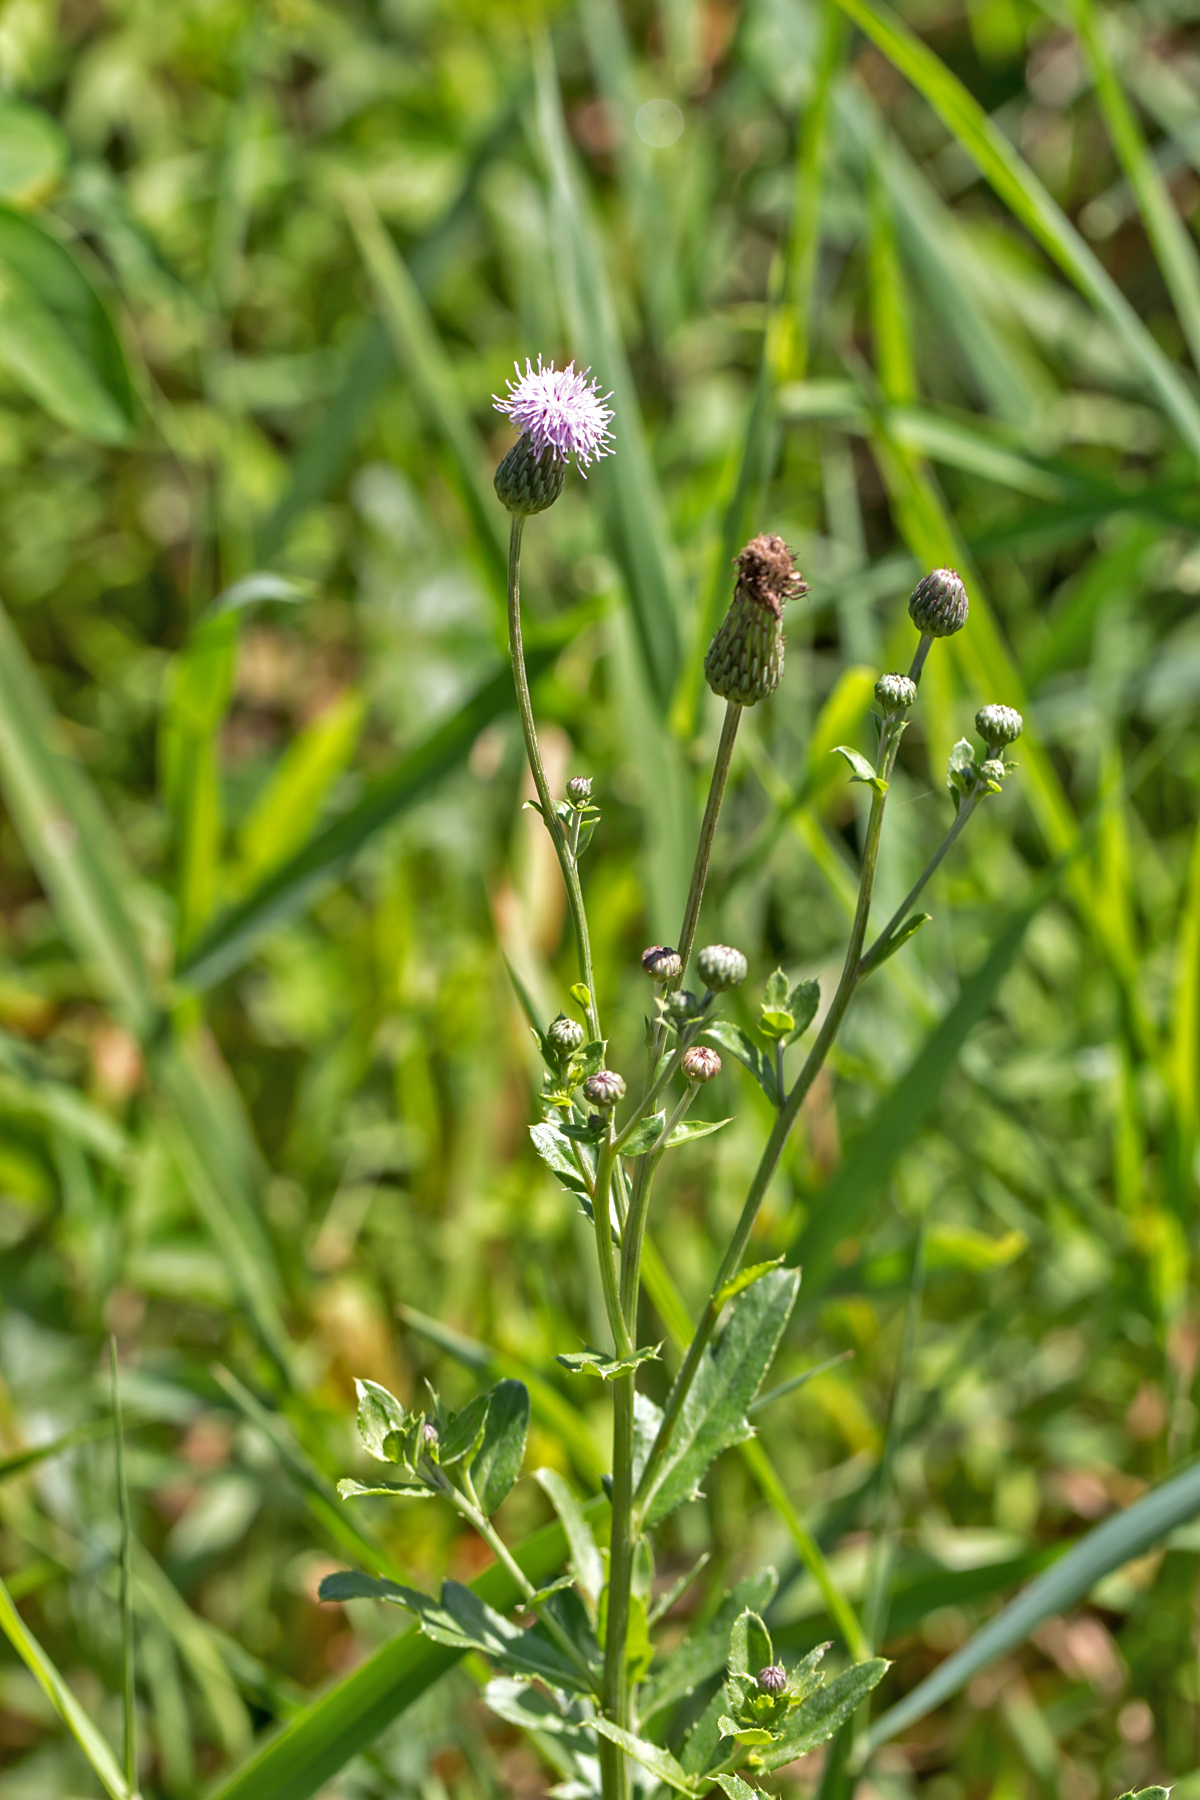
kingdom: Plantae
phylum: Tracheophyta
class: Magnoliopsida
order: Asterales
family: Asteraceae
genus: Cirsium
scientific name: Cirsium arvense
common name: Creeping thistle
